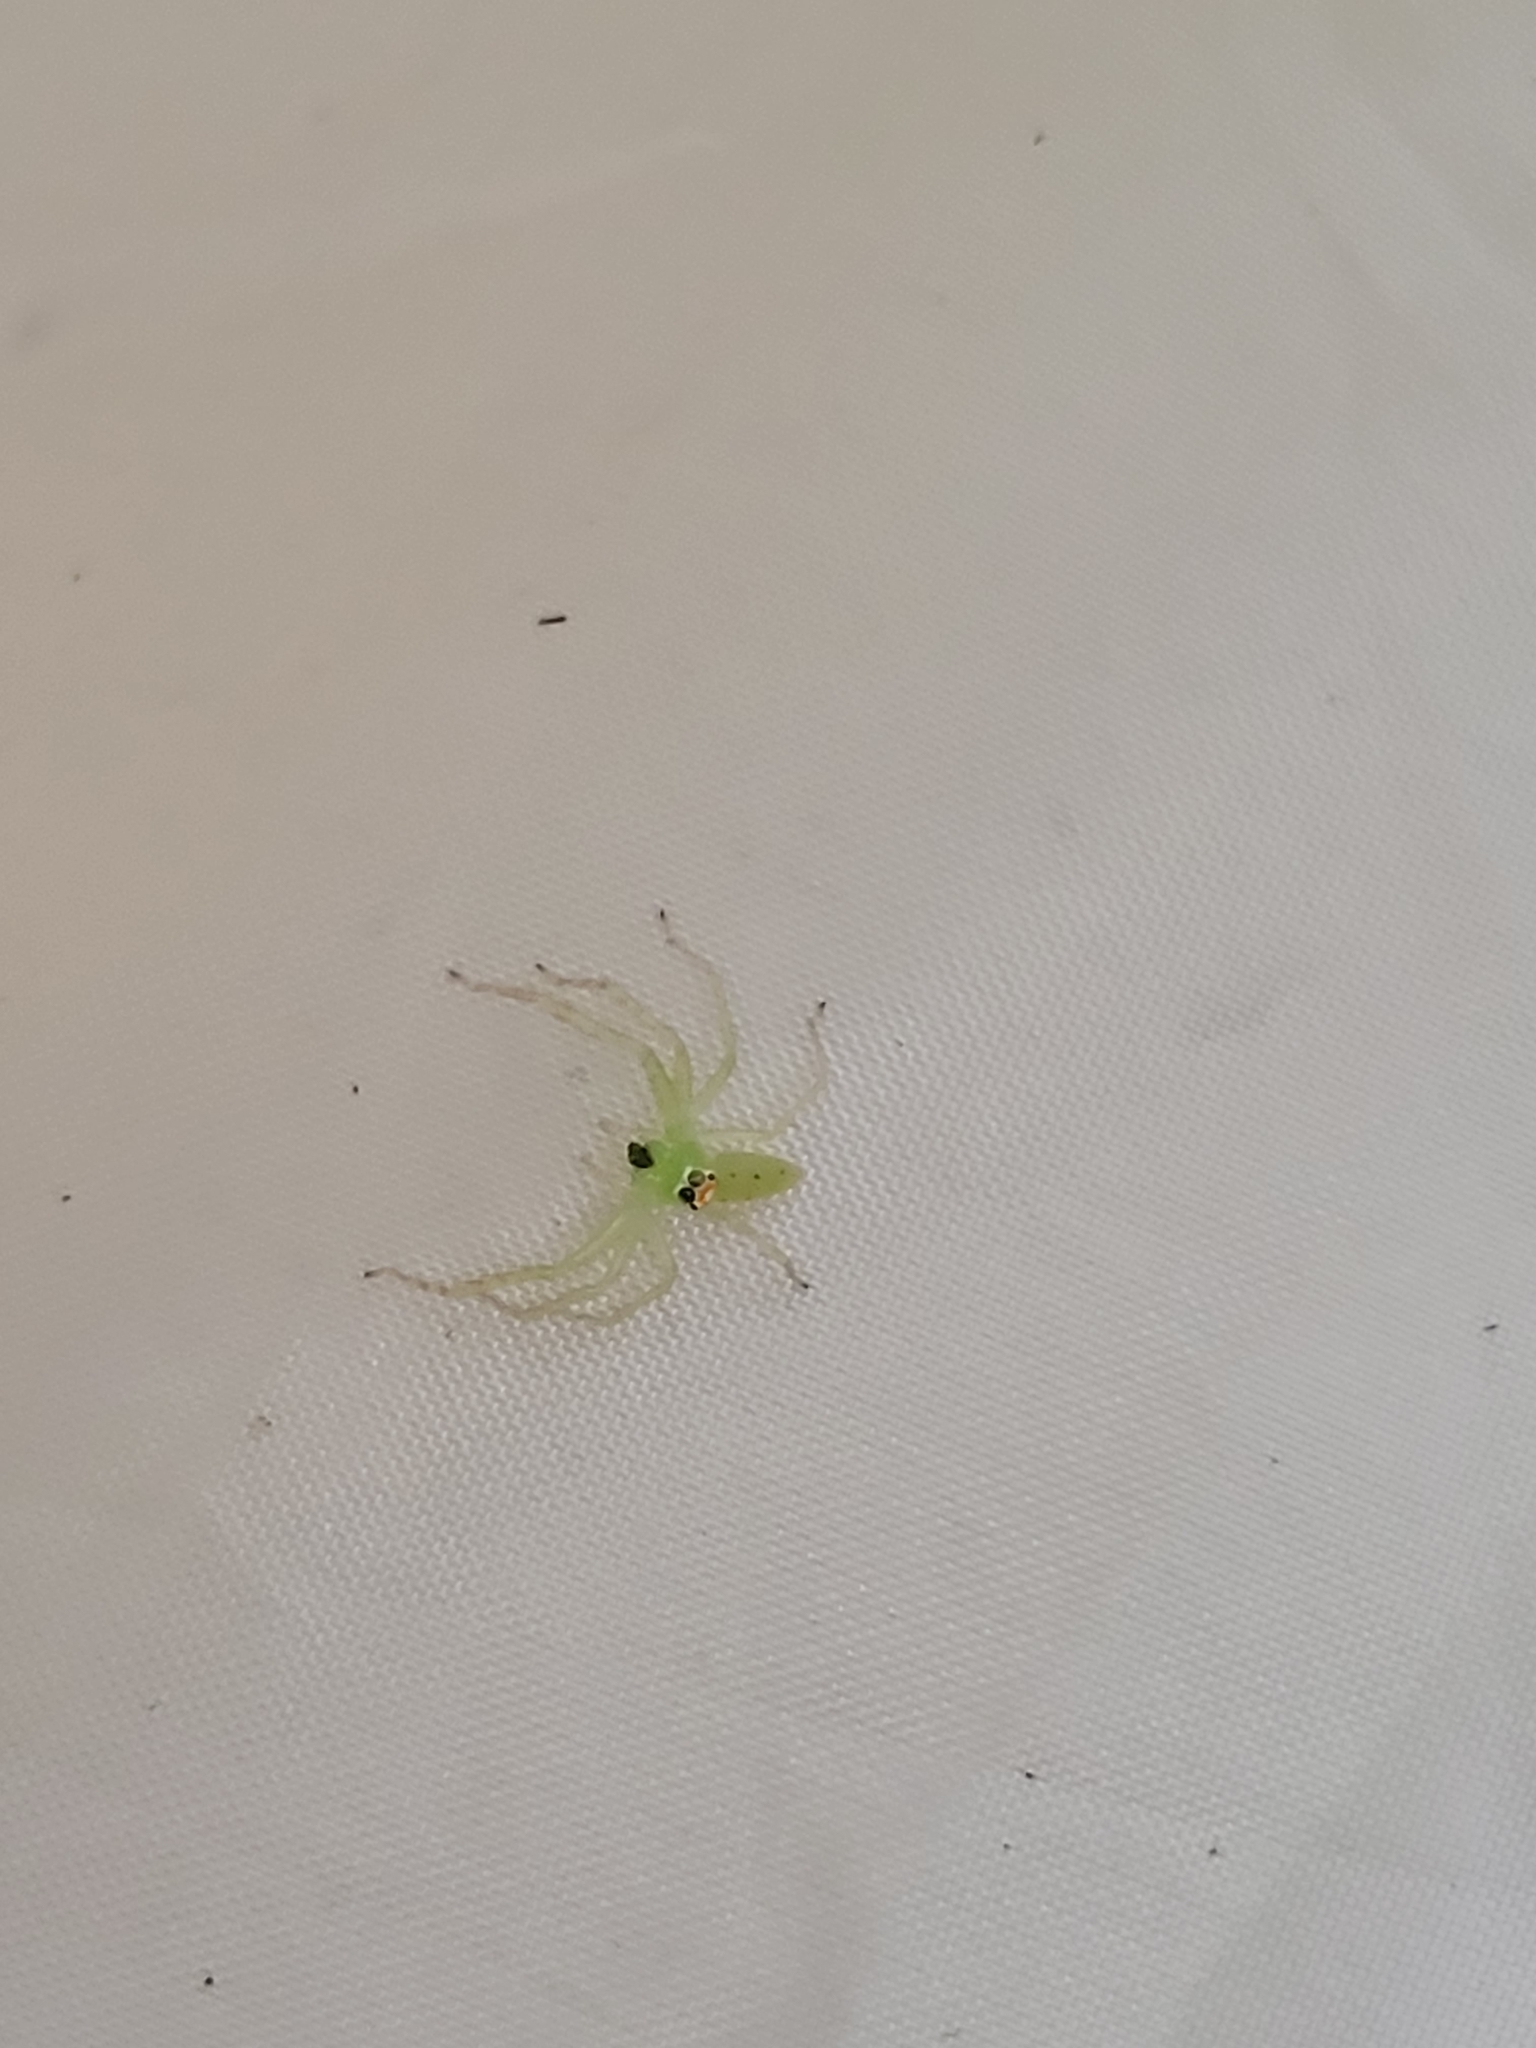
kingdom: Animalia
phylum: Arthropoda
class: Arachnida
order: Araneae
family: Salticidae
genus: Lyssomanes
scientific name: Lyssomanes viridis
